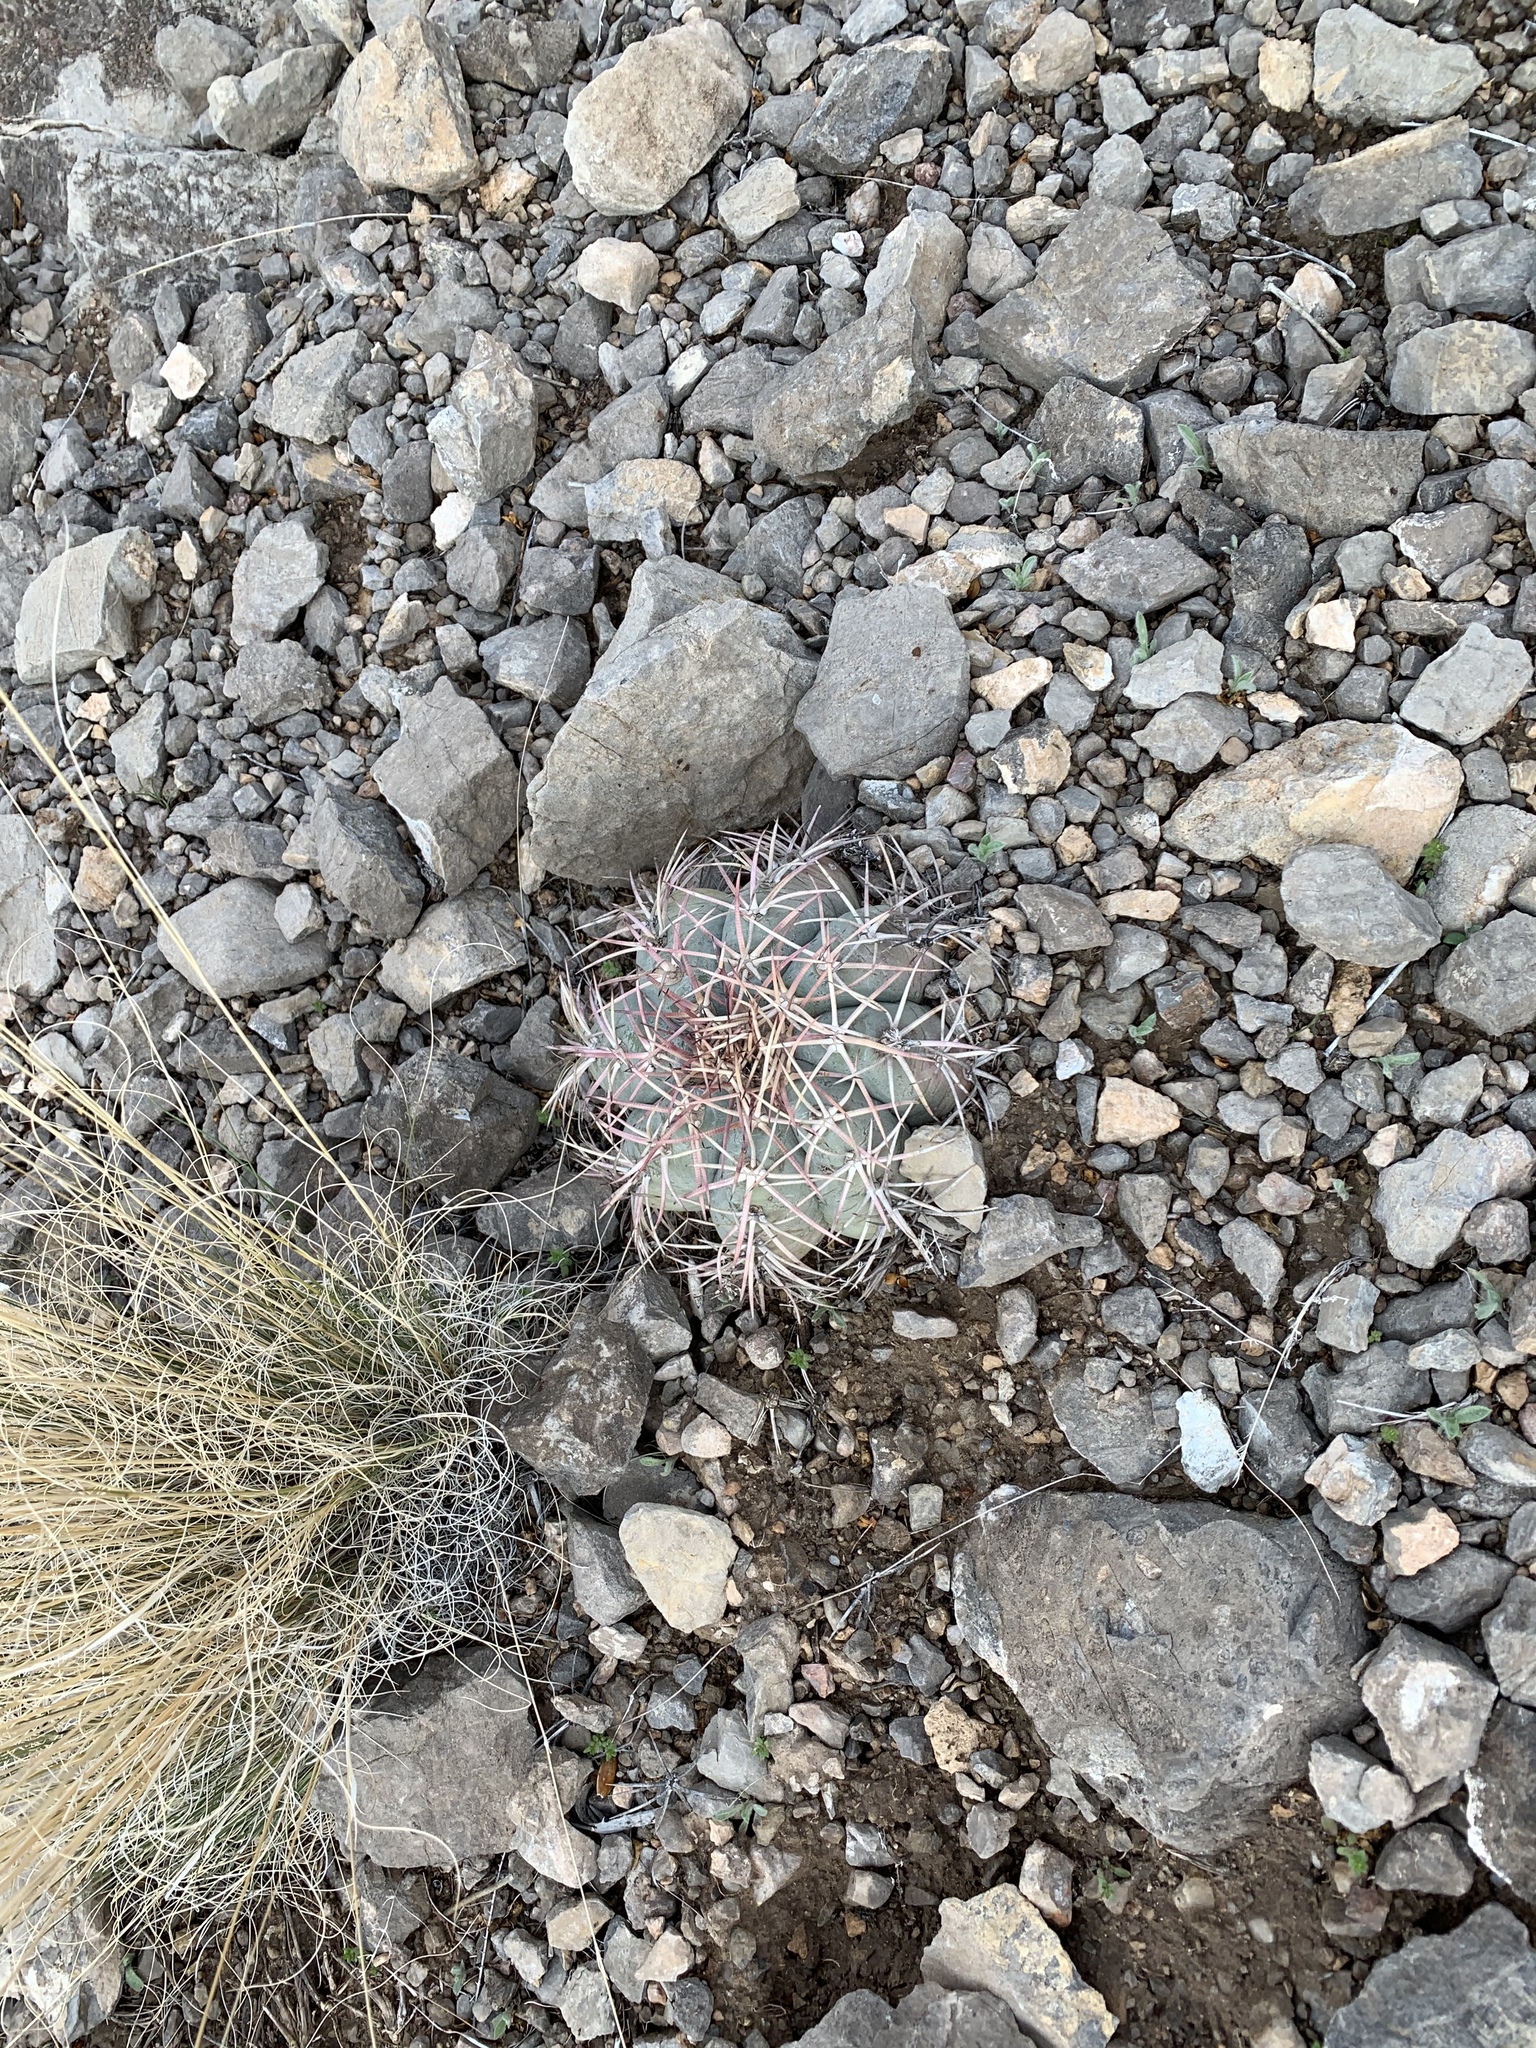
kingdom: Plantae
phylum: Tracheophyta
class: Magnoliopsida
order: Caryophyllales
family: Cactaceae
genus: Echinocactus
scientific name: Echinocactus horizonthalonius
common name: Devilshead
